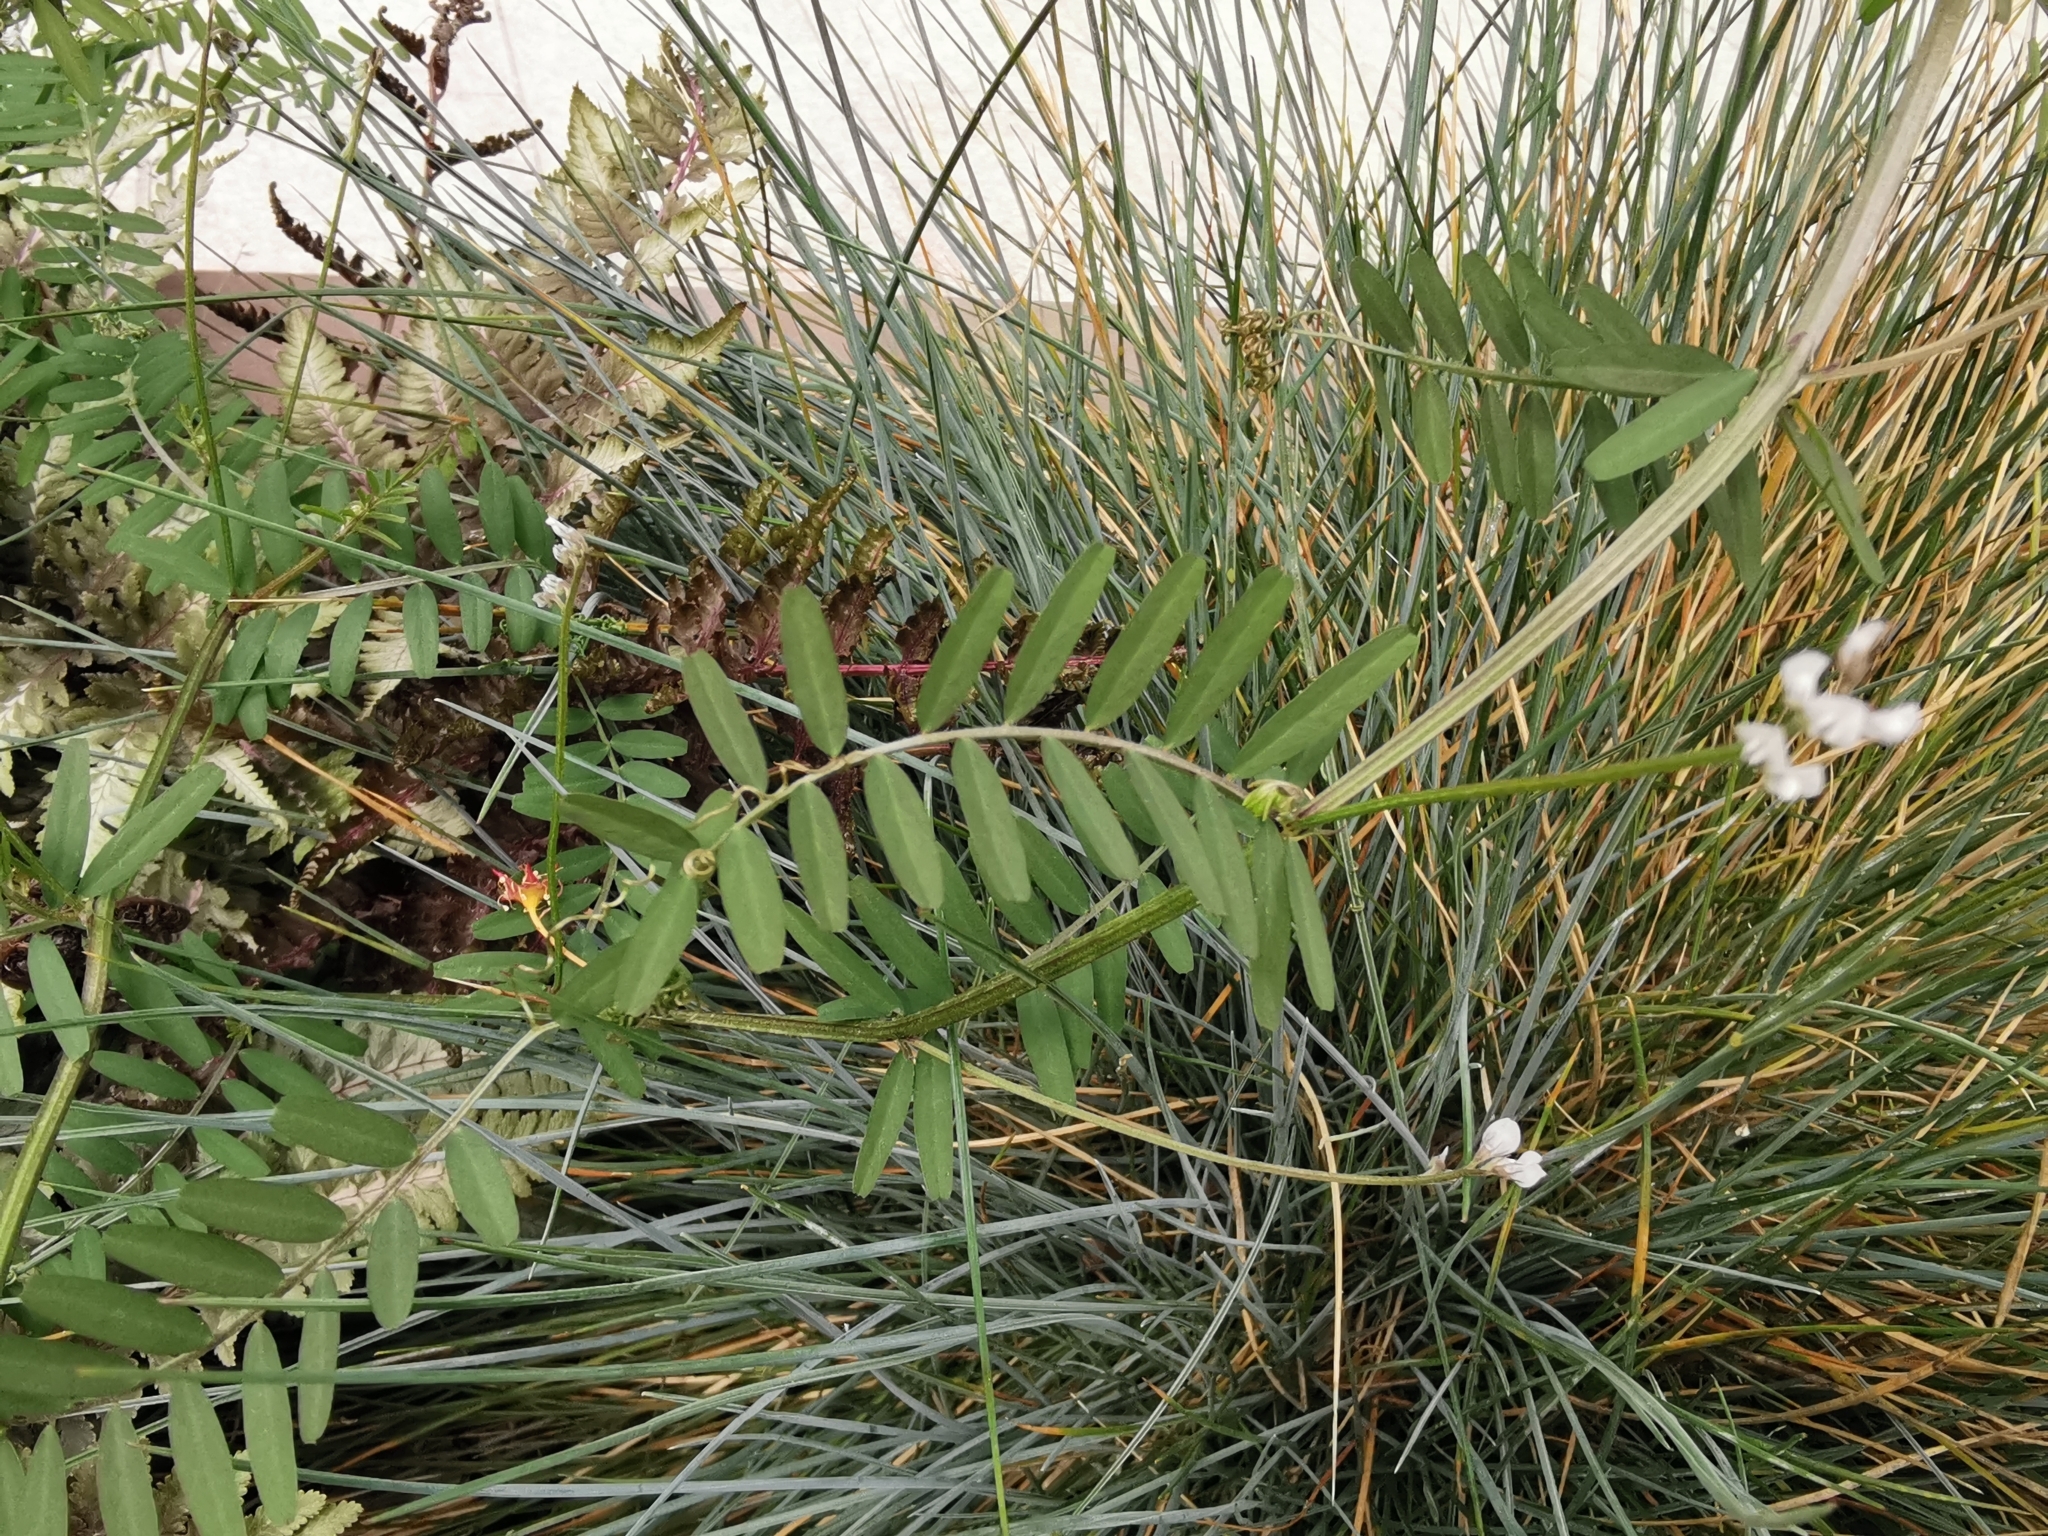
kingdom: Plantae
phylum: Tracheophyta
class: Magnoliopsida
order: Fabales
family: Fabaceae
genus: Vicia
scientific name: Vicia hirsuta
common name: Tiny vetch
